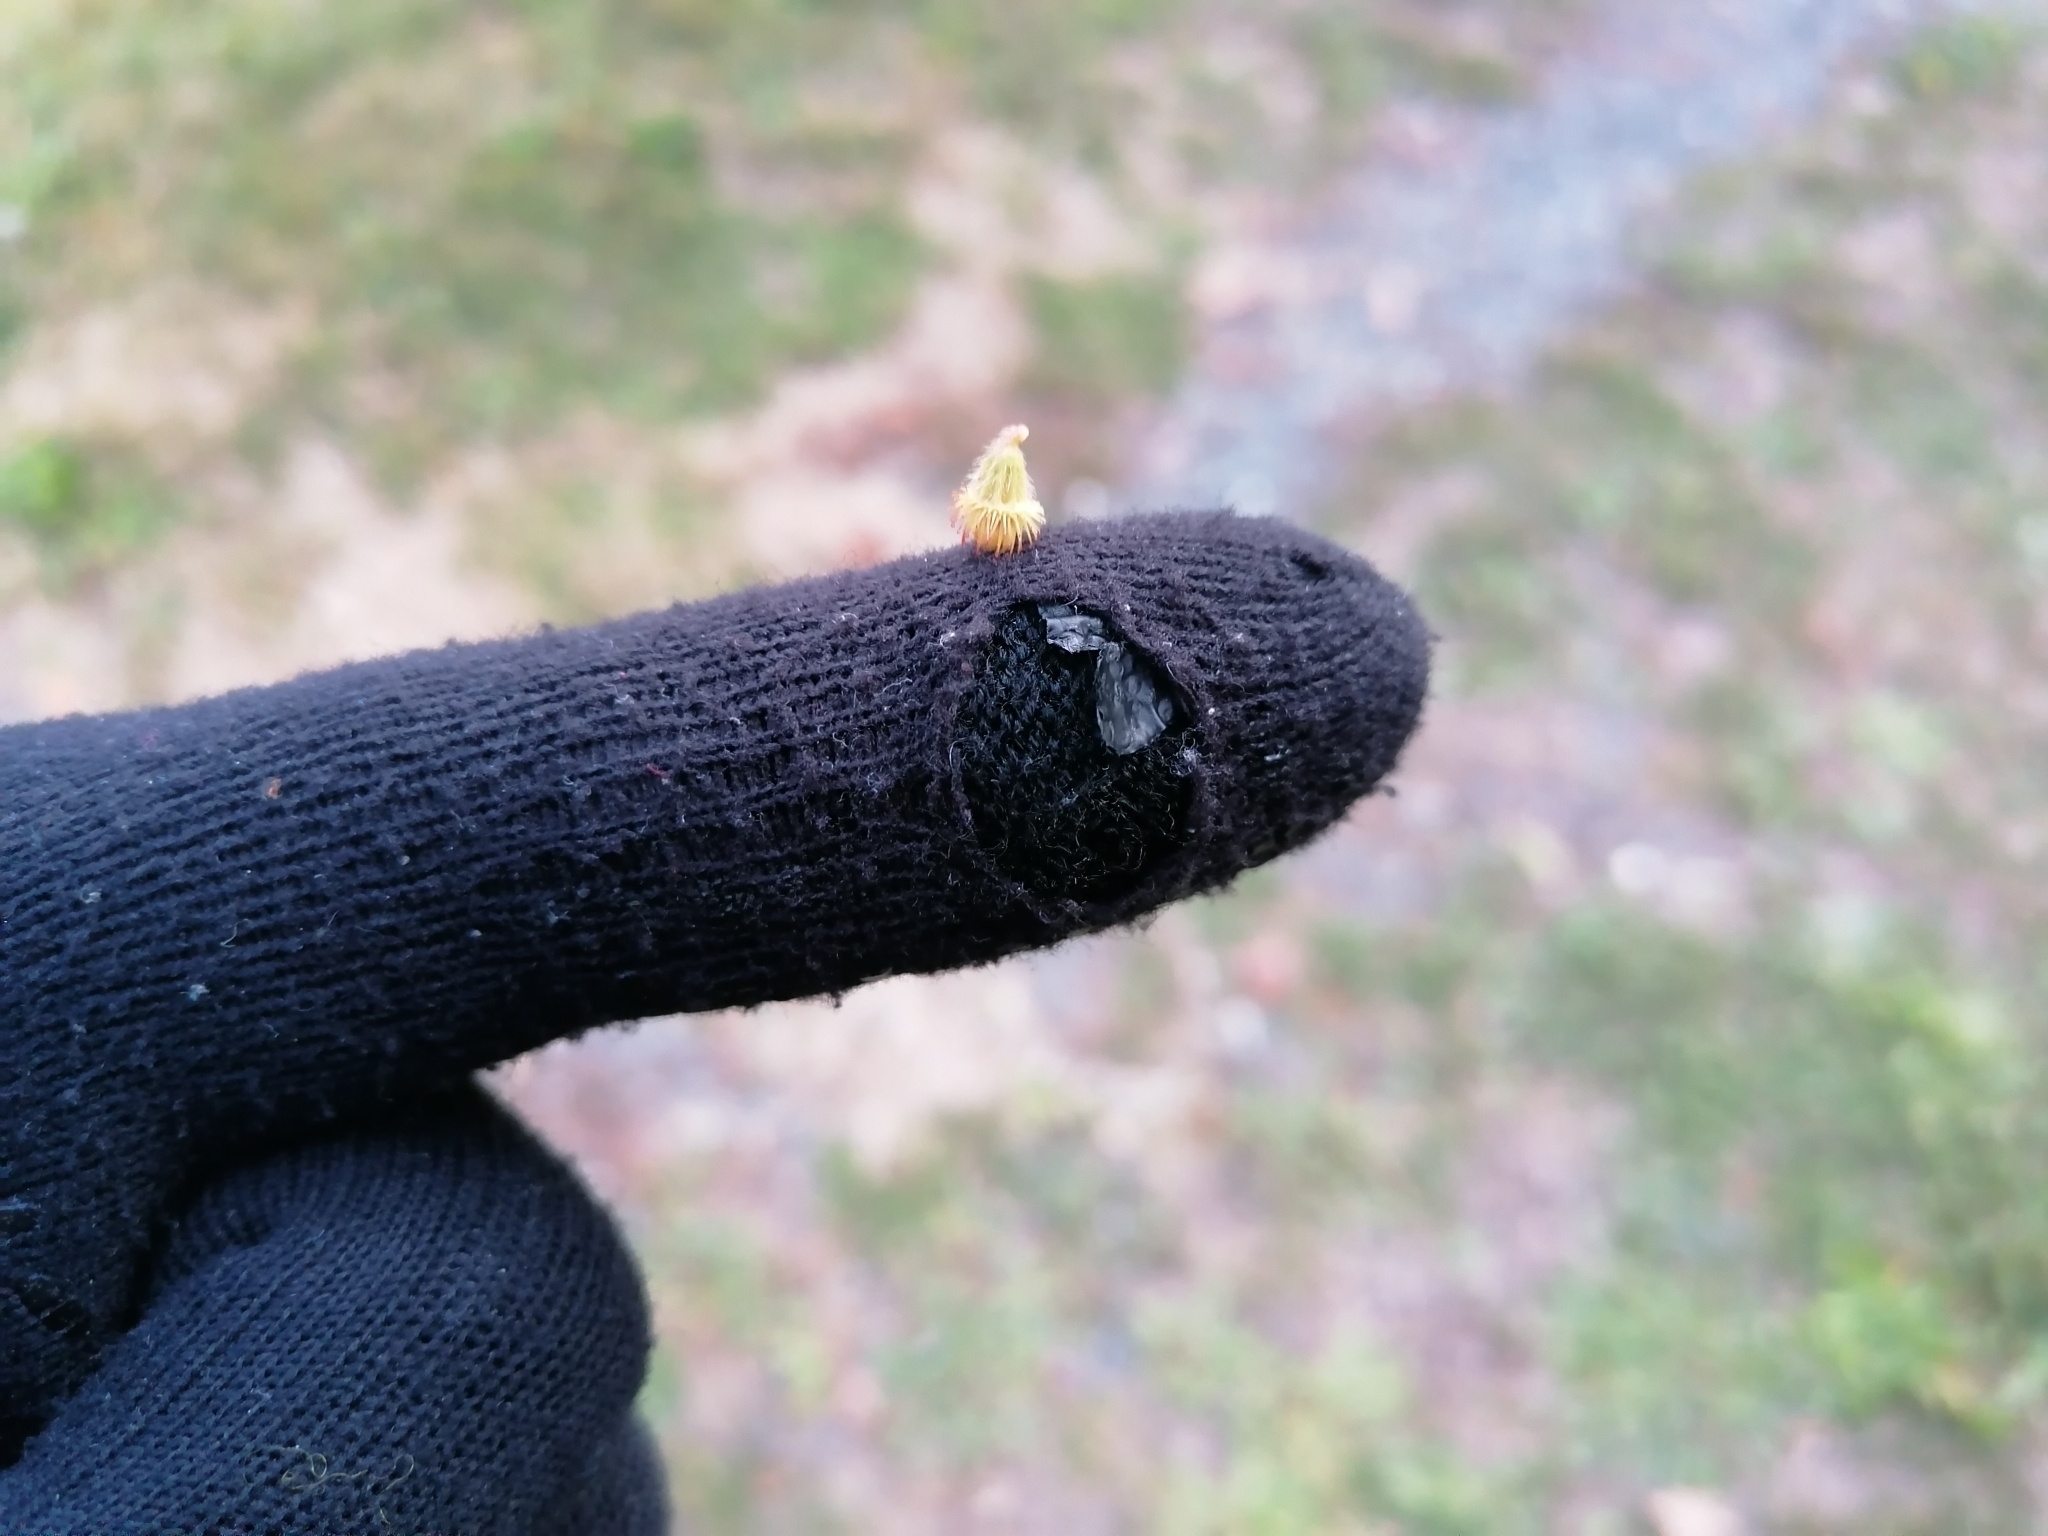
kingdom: Plantae
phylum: Tracheophyta
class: Magnoliopsida
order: Rosales
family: Rosaceae
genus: Agrimonia
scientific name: Agrimonia eupatoria
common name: Agrimony
